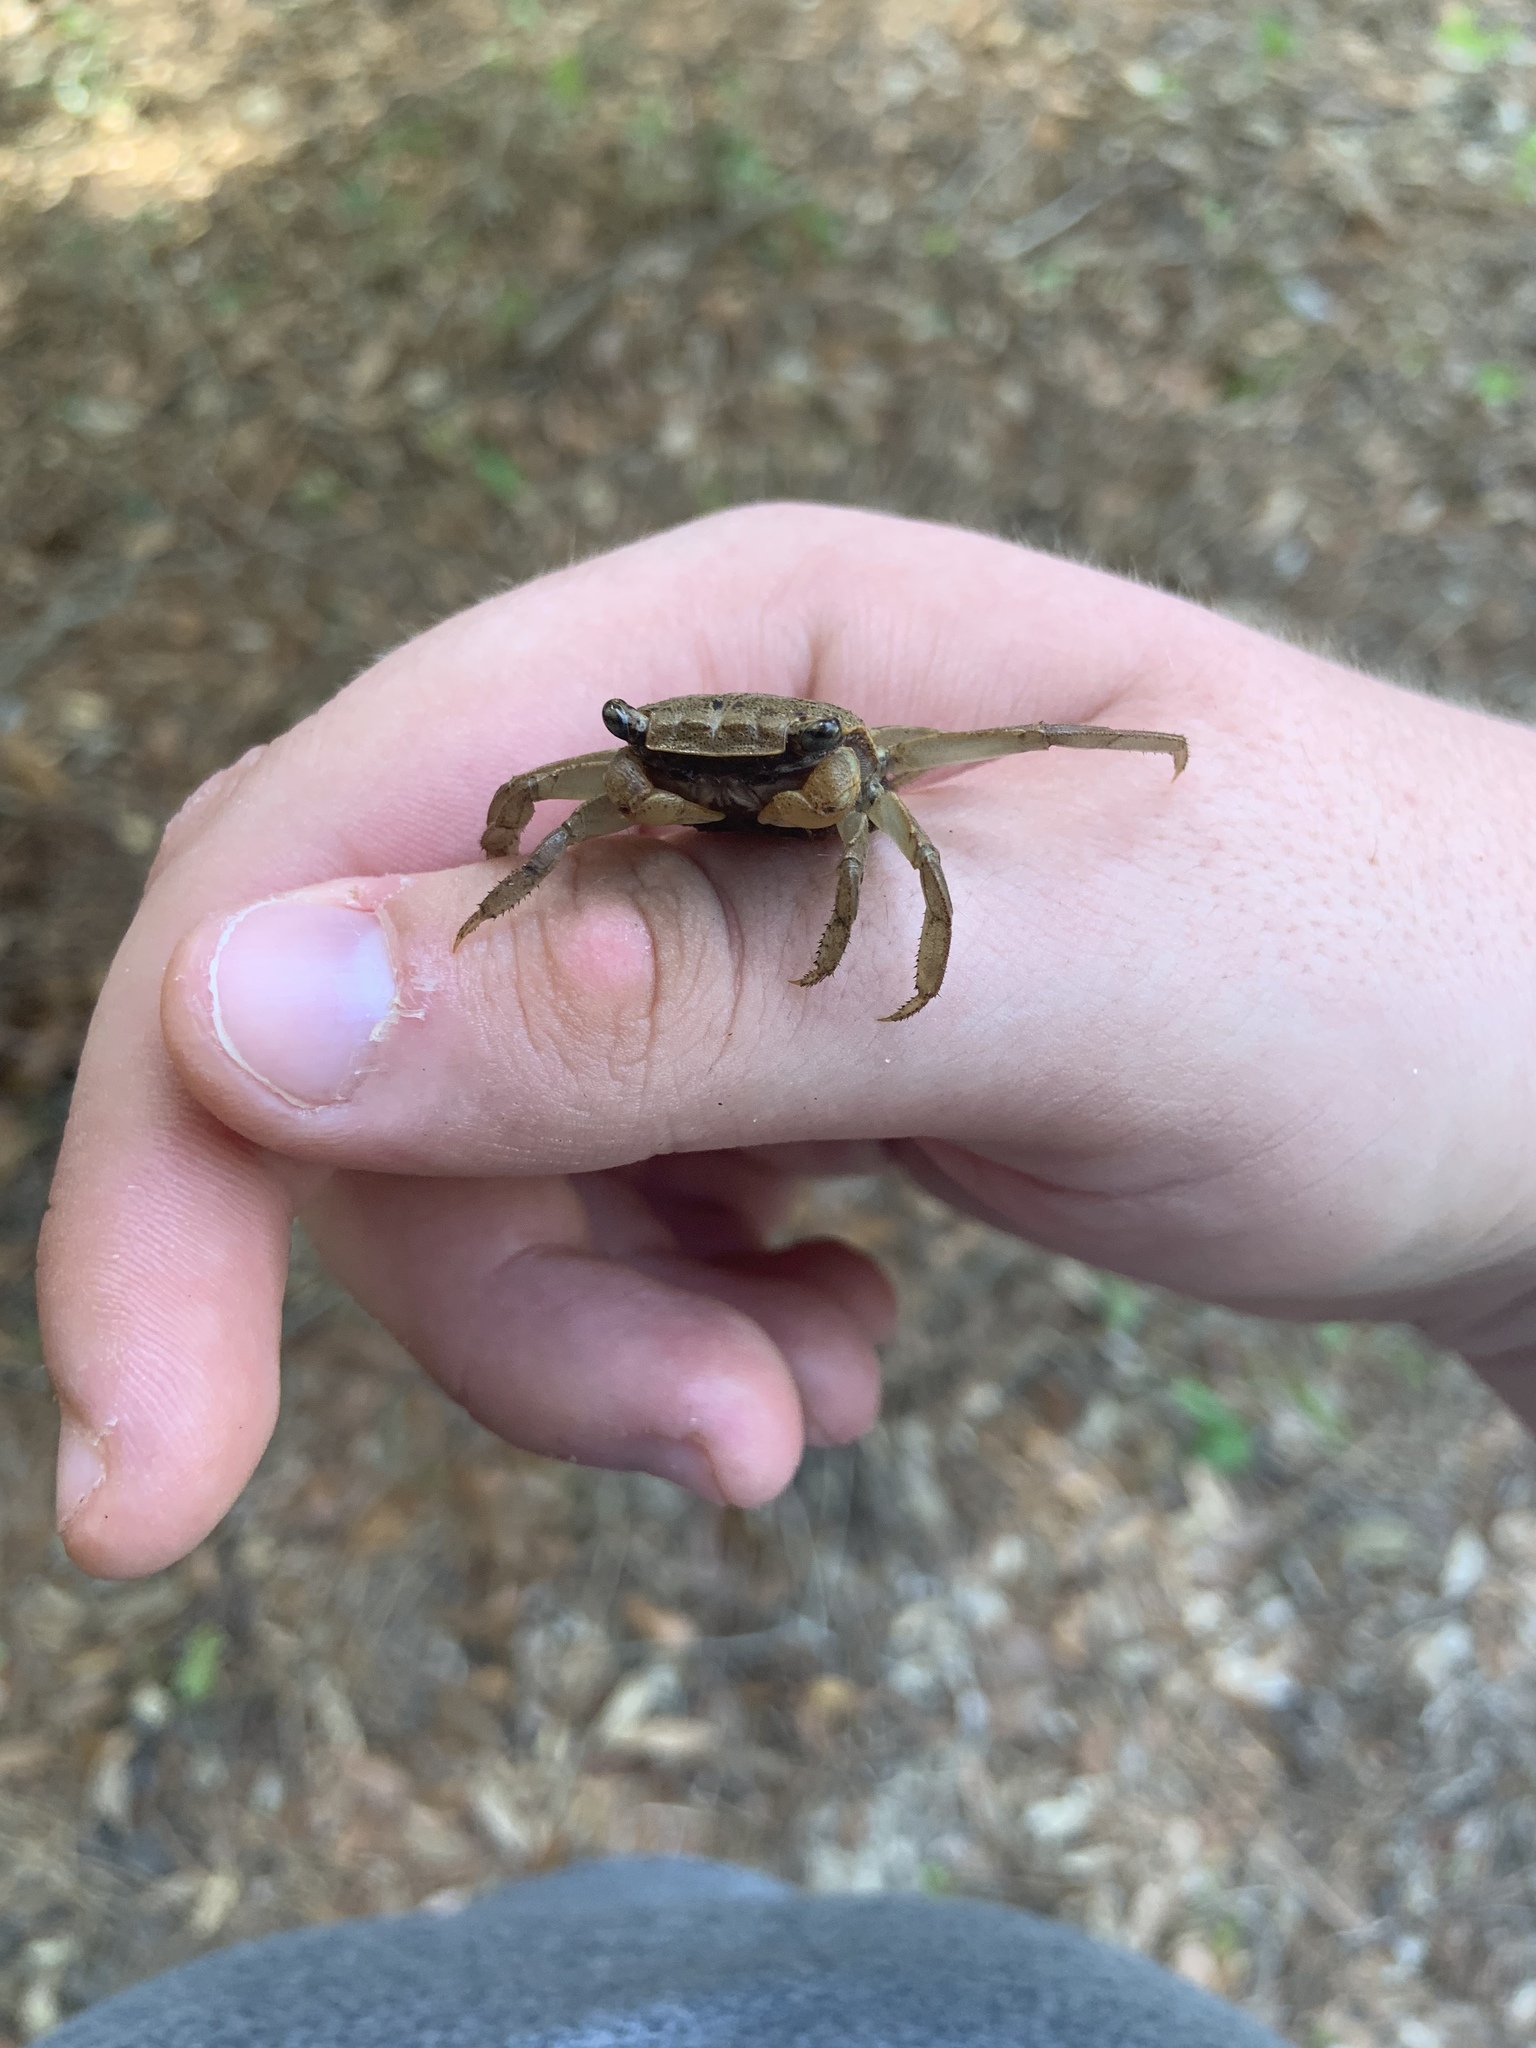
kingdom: Animalia
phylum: Arthropoda
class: Malacostraca
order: Decapoda
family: Sesarmidae
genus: Armases
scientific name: Armases cinereum
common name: Squareback marsh crab
